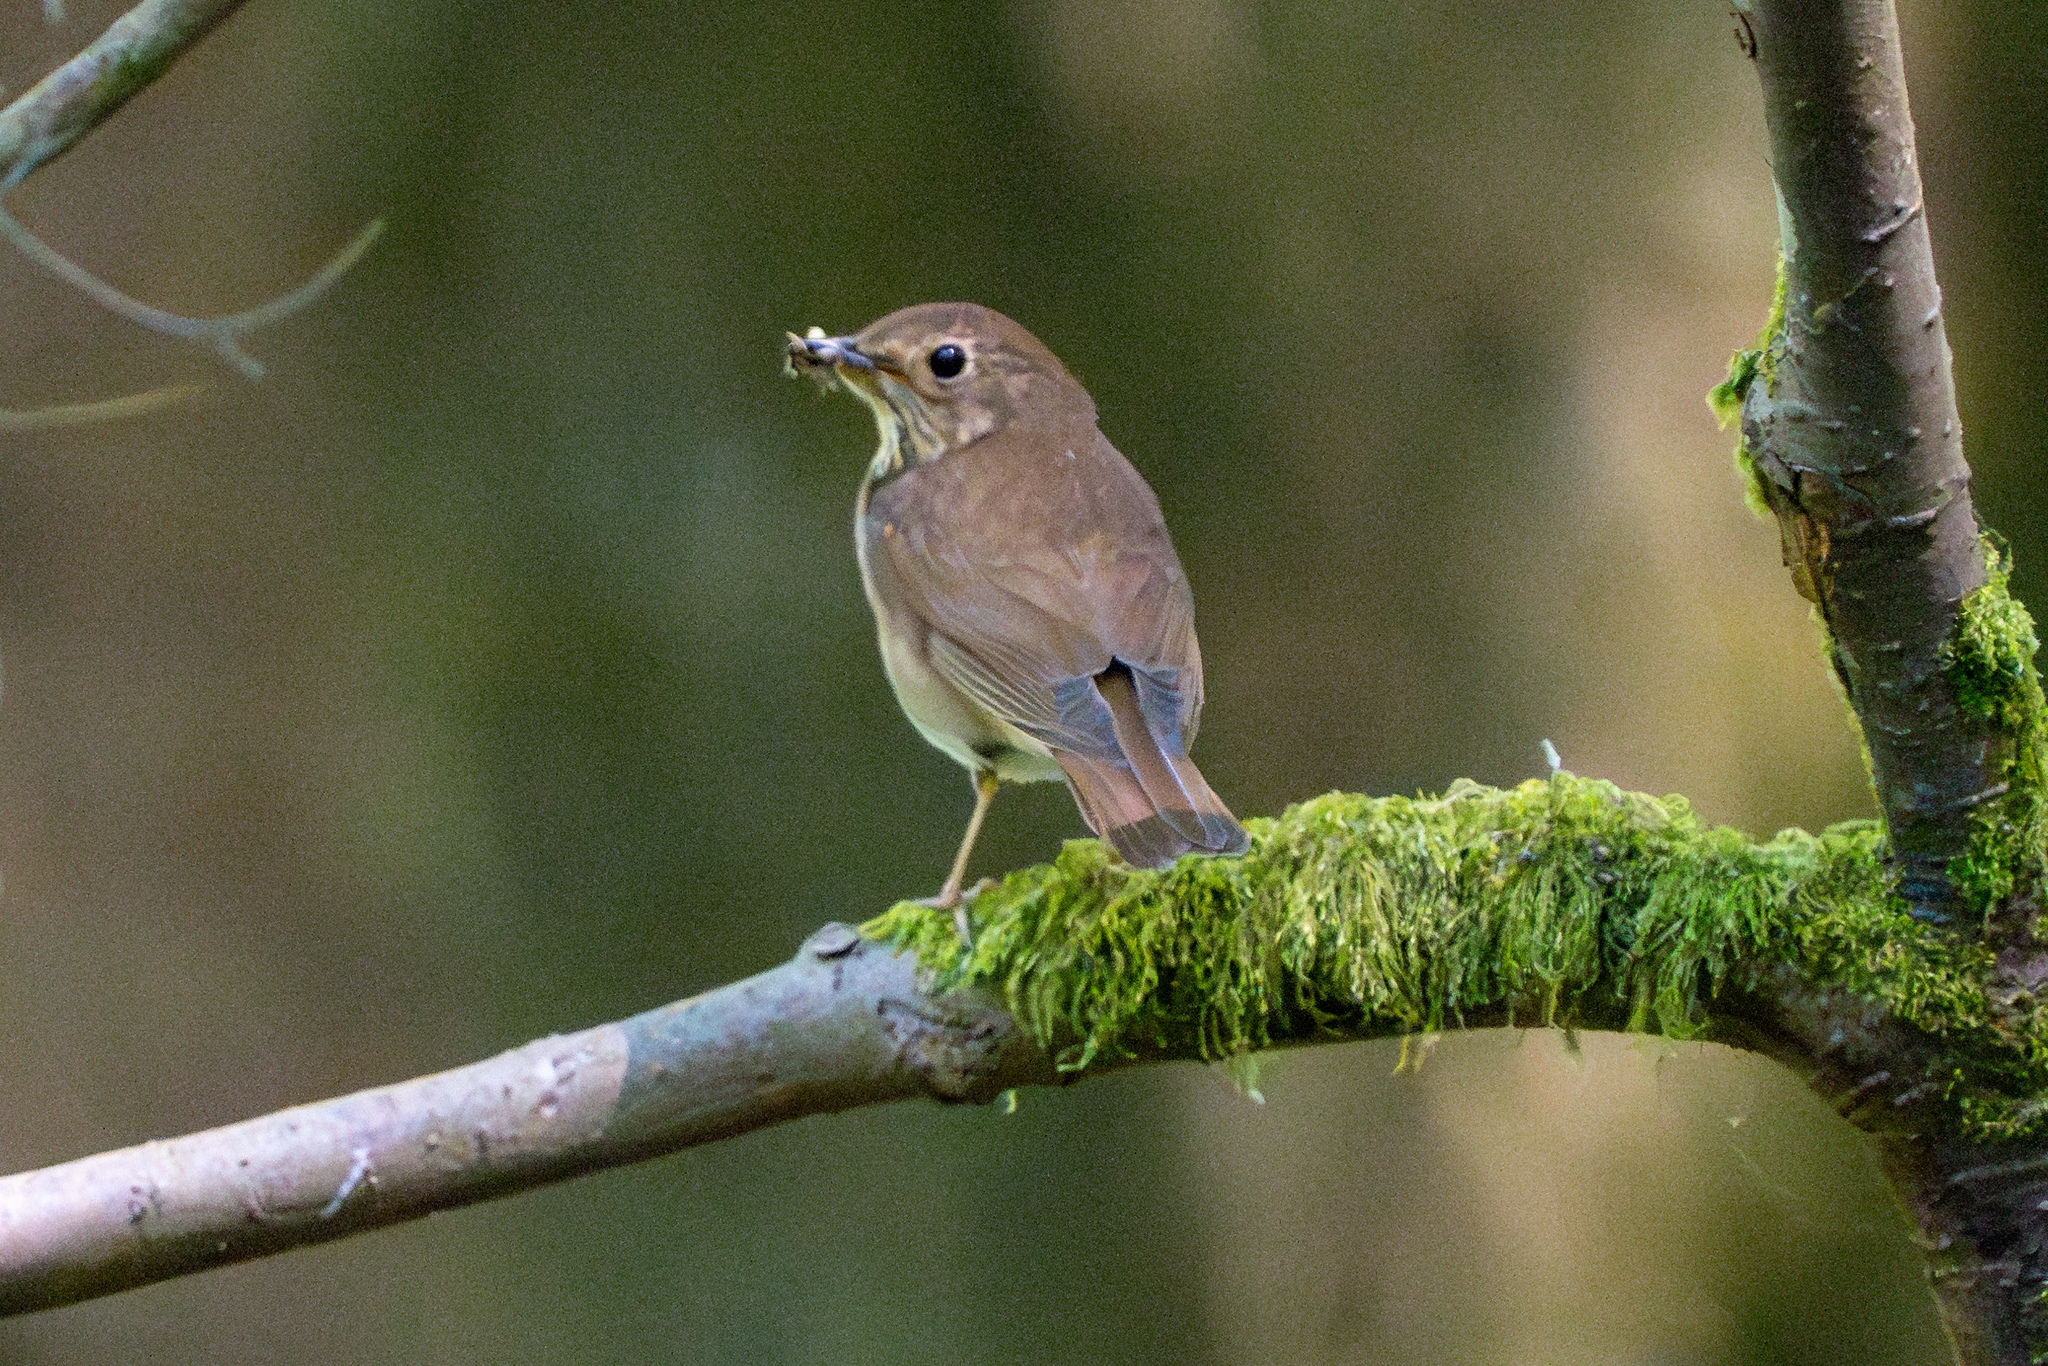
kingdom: Animalia
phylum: Chordata
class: Aves
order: Passeriformes
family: Turdidae
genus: Catharus
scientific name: Catharus ustulatus
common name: Swainson's thrush
